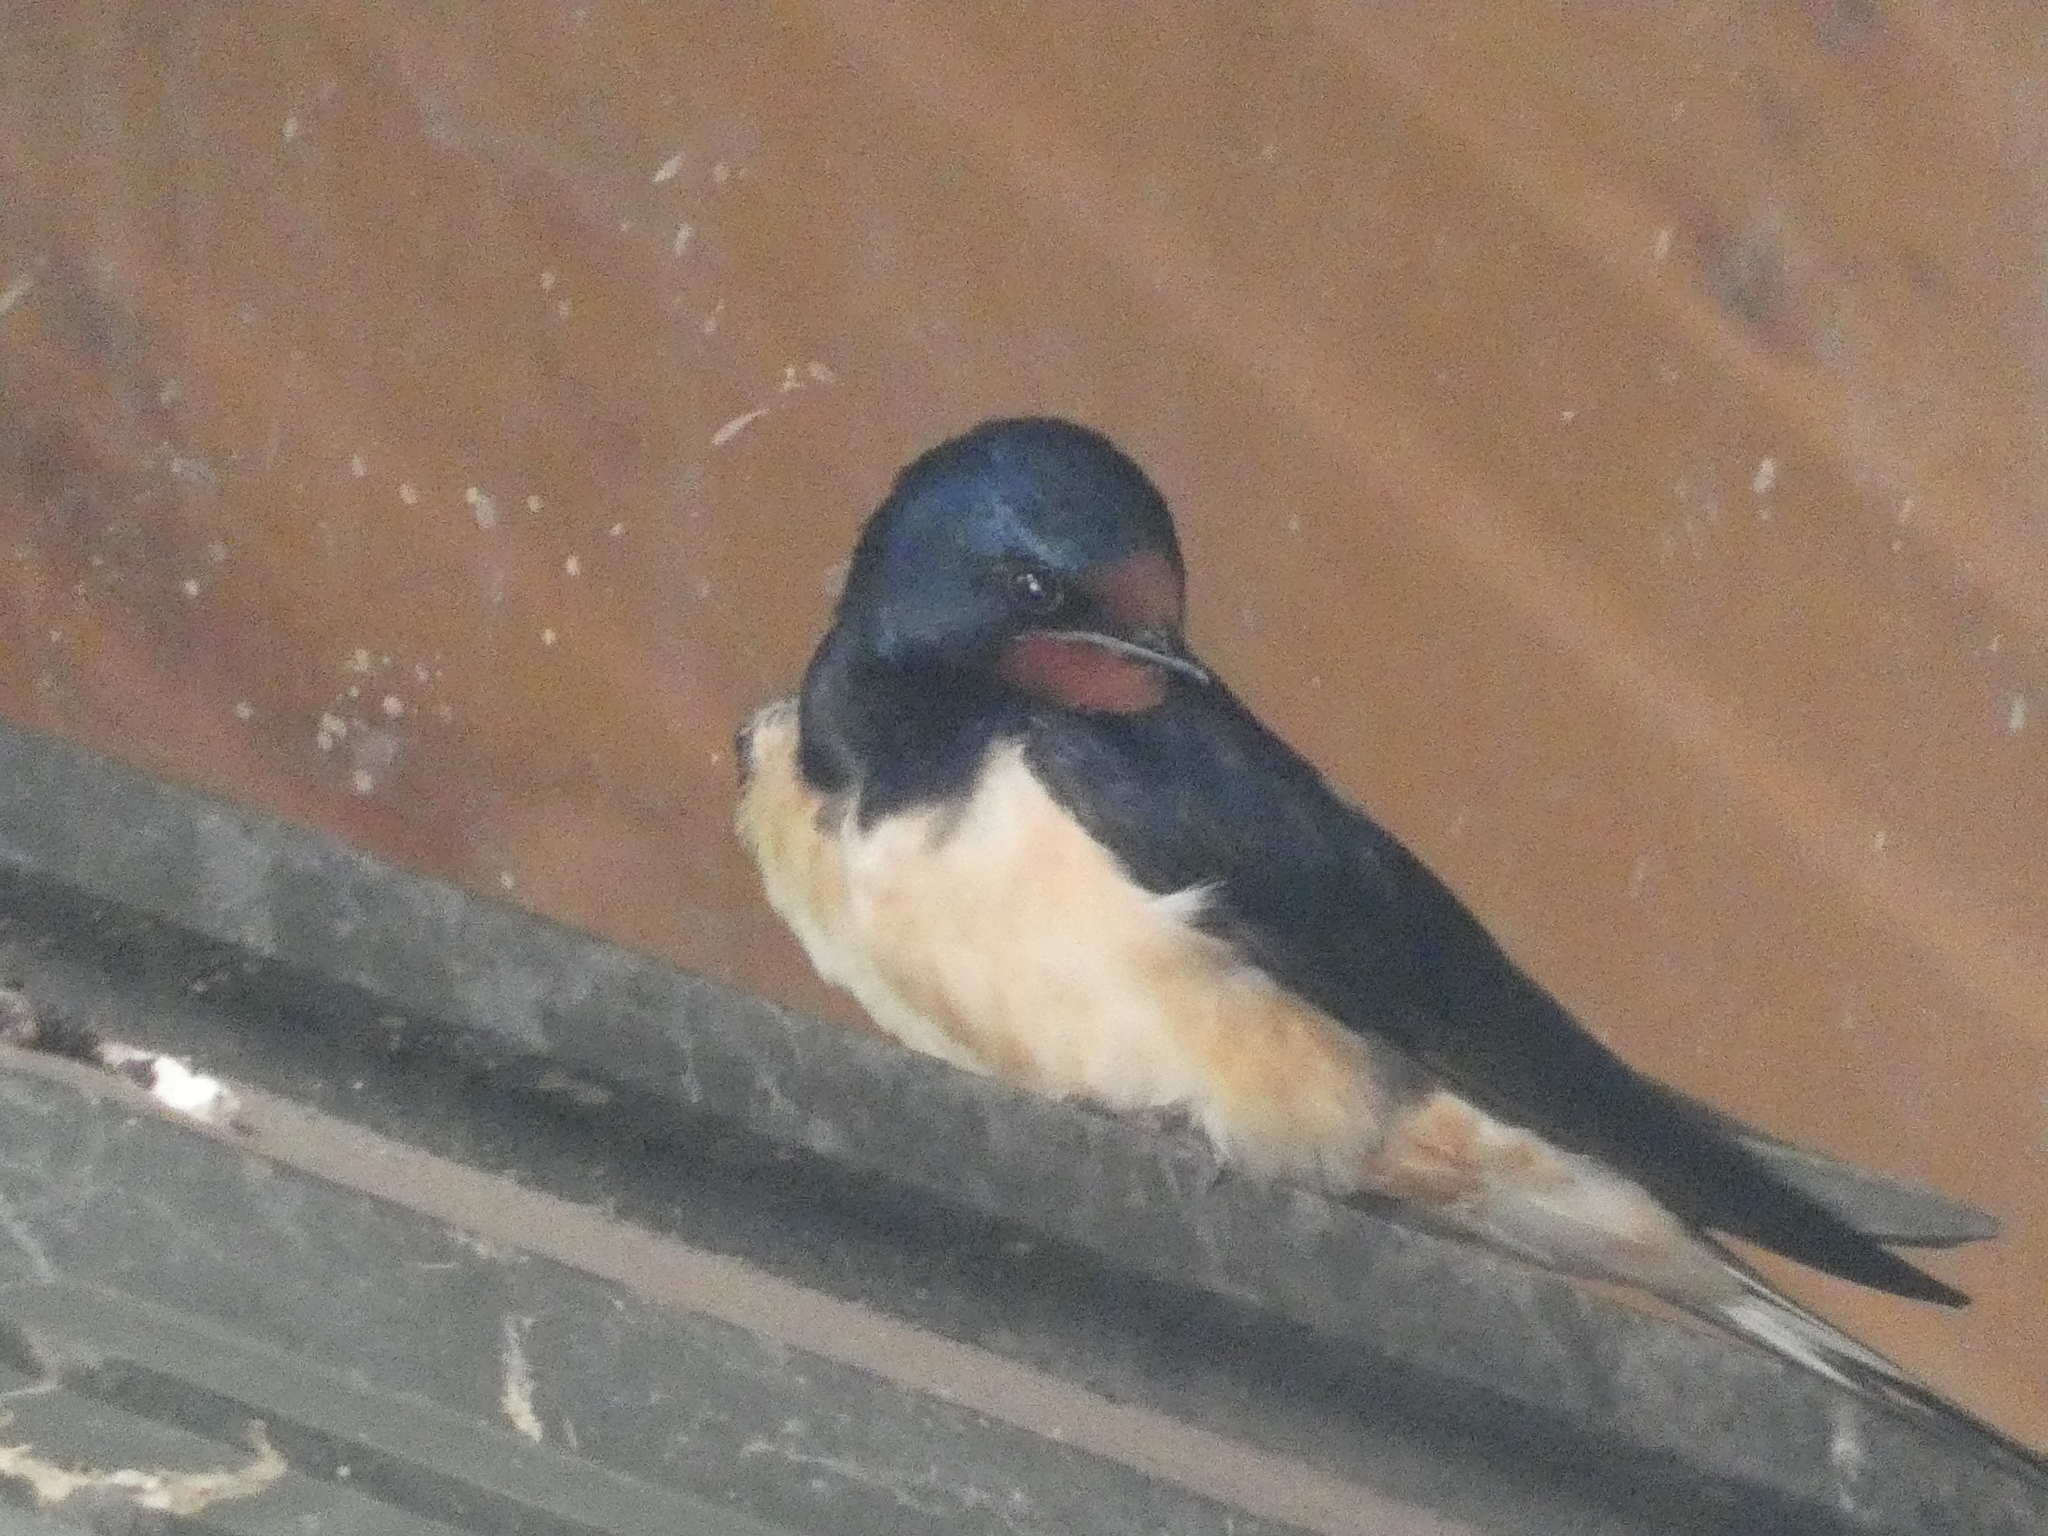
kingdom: Animalia
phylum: Chordata
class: Aves
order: Passeriformes
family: Hirundinidae
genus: Hirundo
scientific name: Hirundo rustica
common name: Barn swallow
